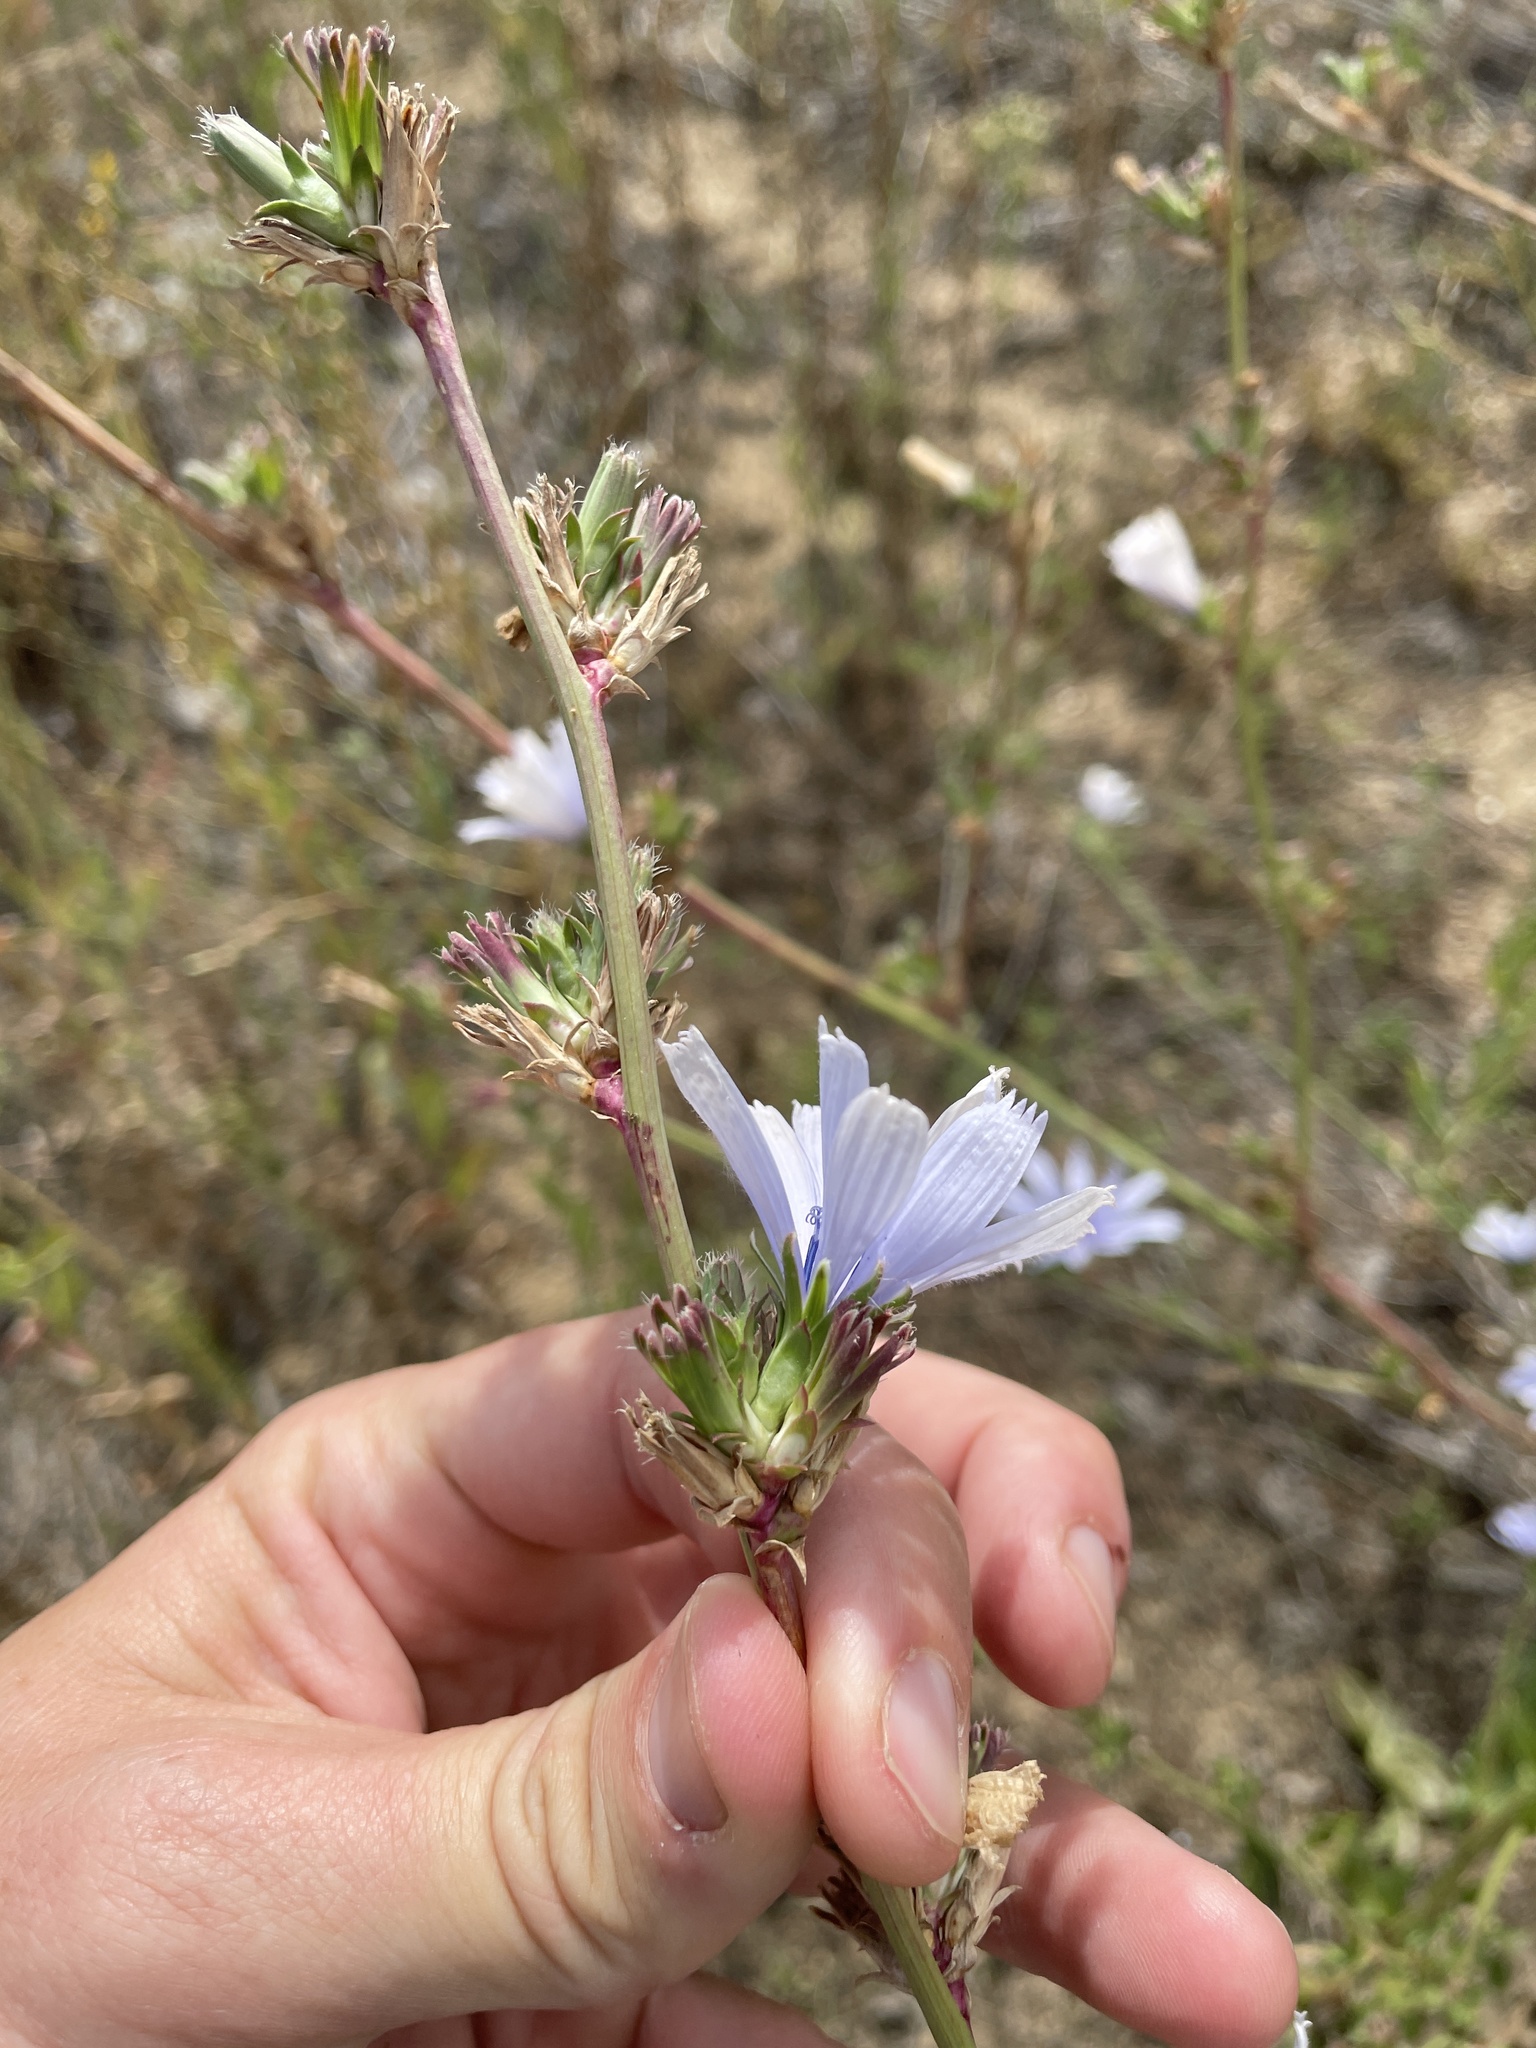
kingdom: Plantae
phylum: Tracheophyta
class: Magnoliopsida
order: Asterales
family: Asteraceae
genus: Cichorium
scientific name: Cichorium intybus
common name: Chicory
